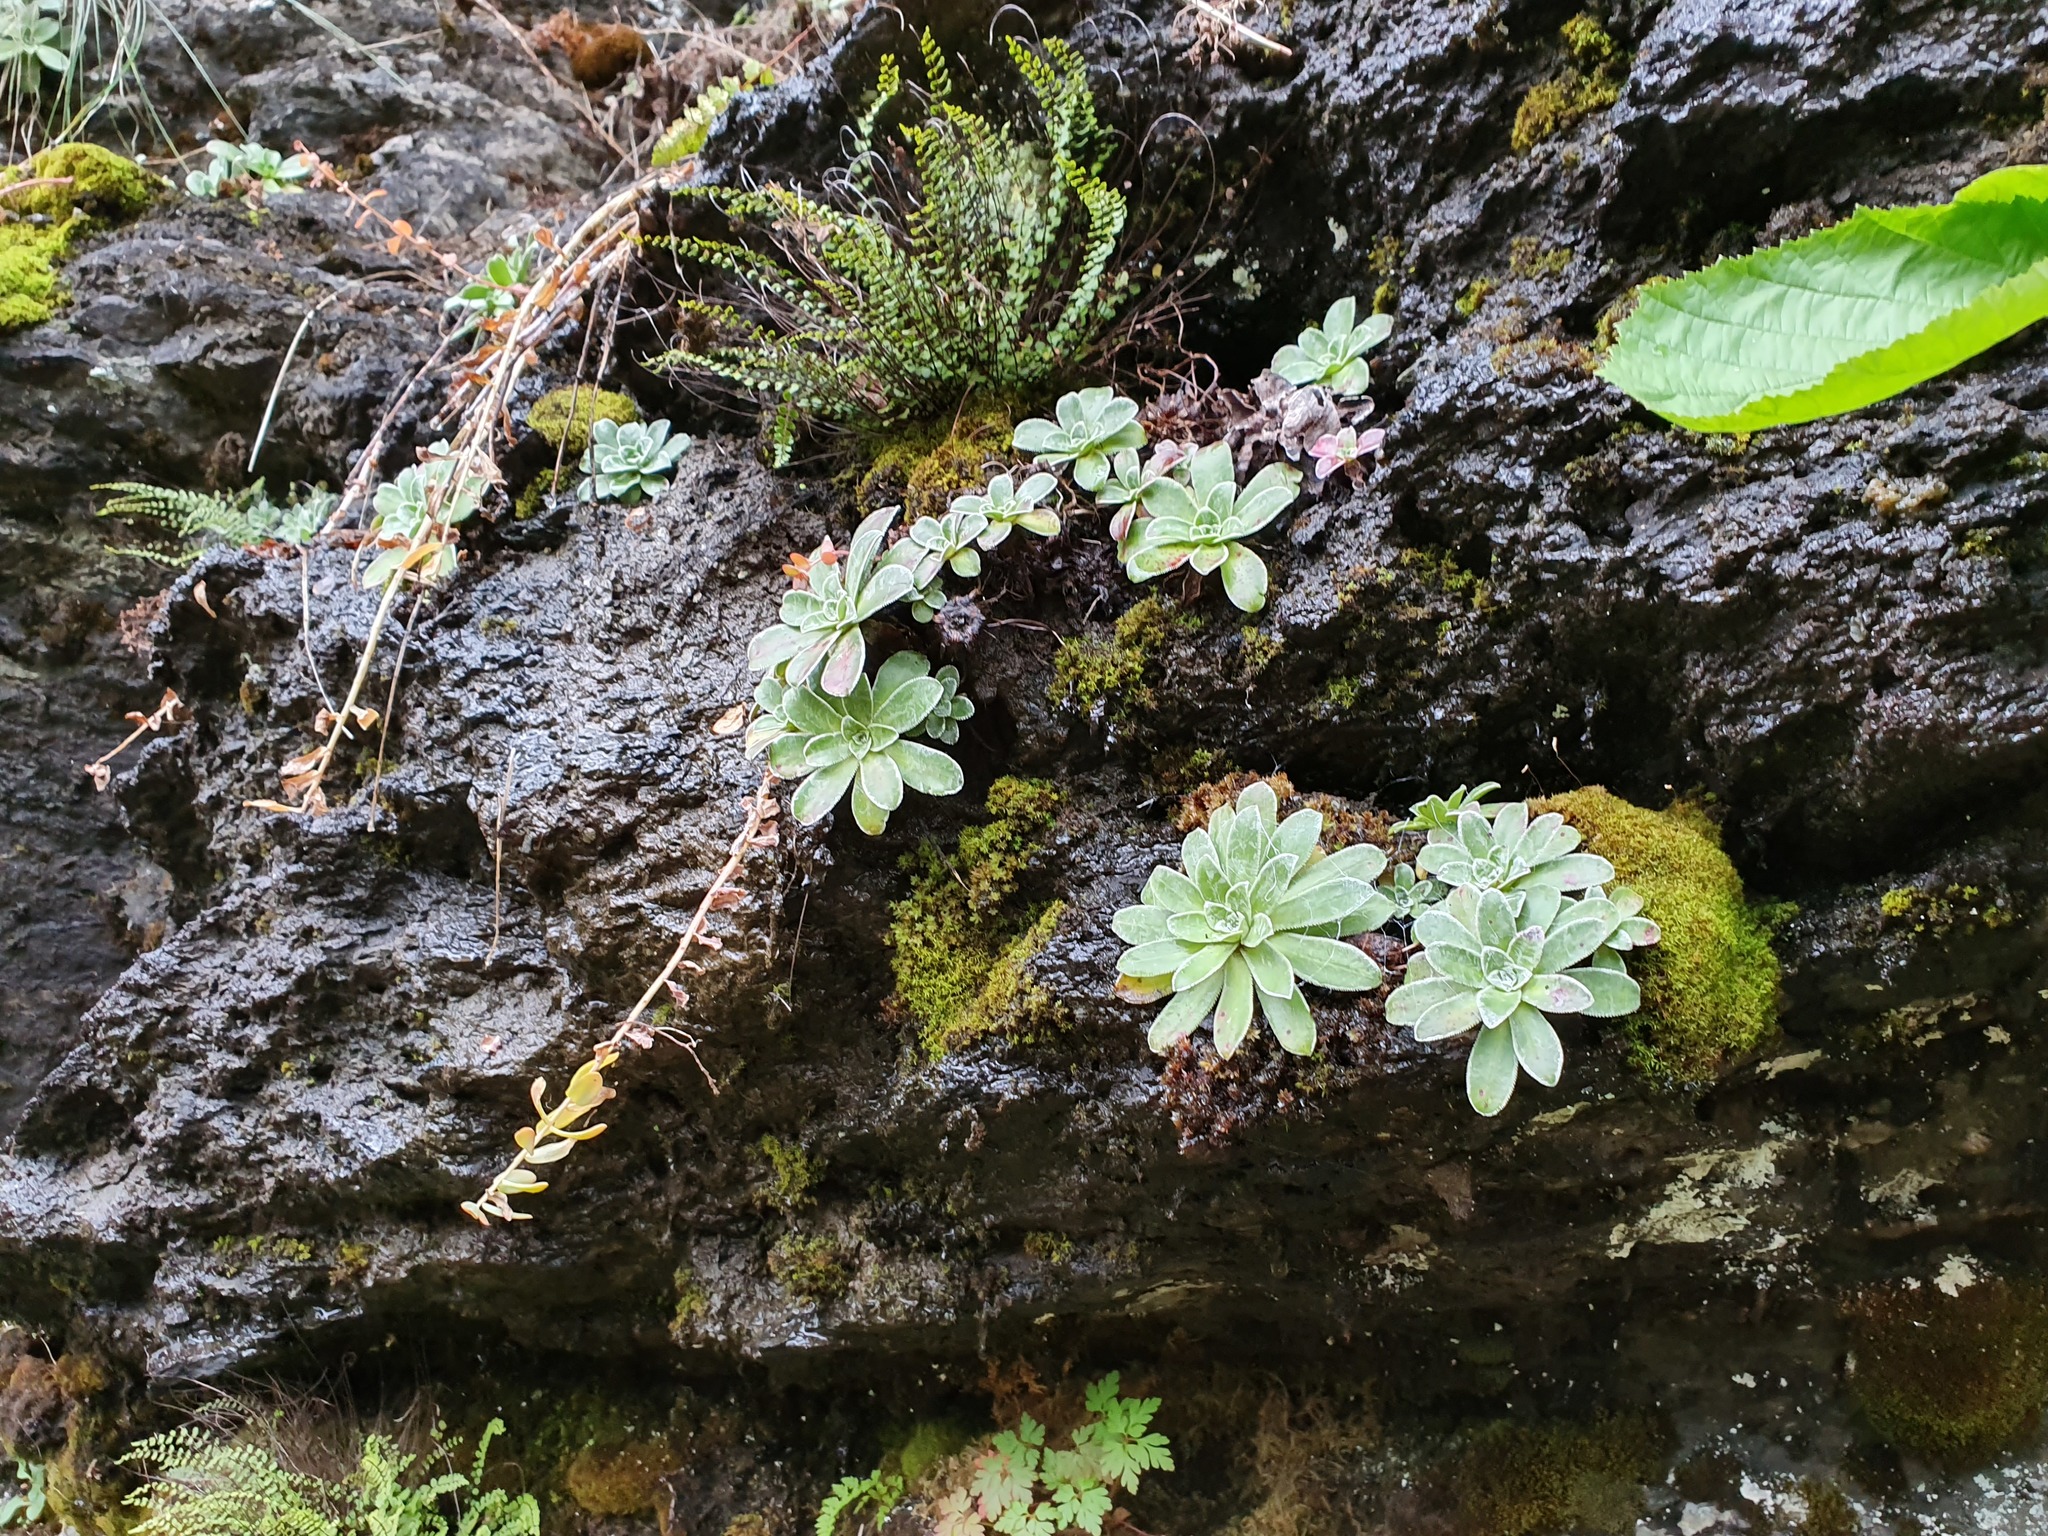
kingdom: Plantae
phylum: Tracheophyta
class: Magnoliopsida
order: Saxifragales
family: Saxifragaceae
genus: Saxifraga
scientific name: Saxifraga cotyledon
